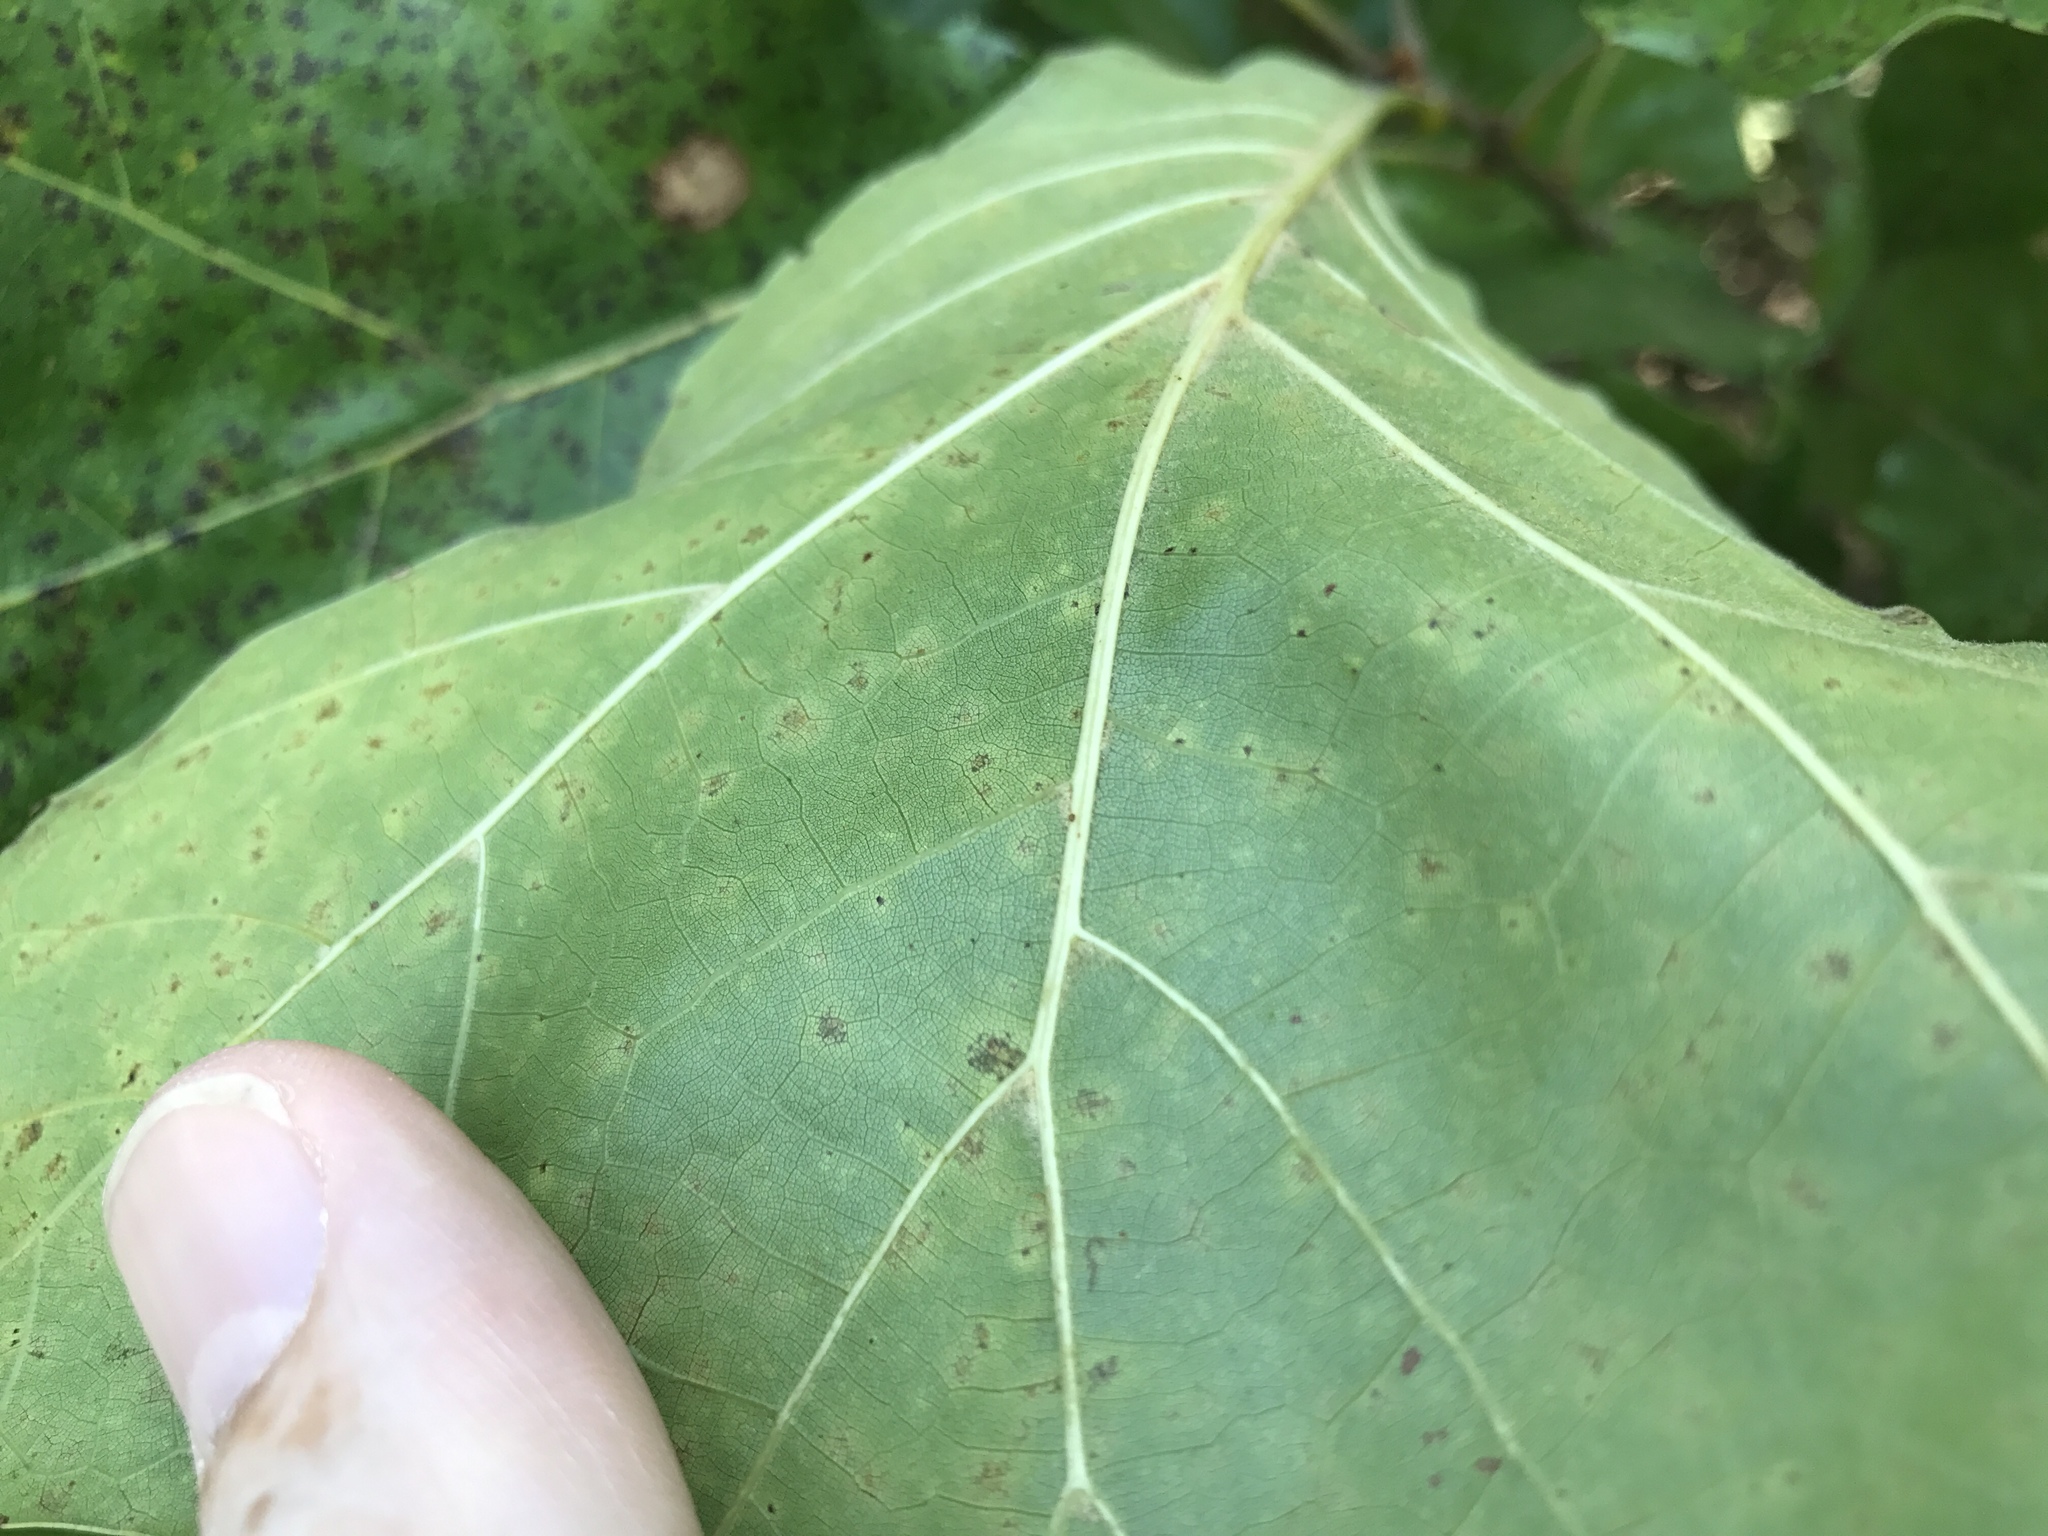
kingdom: Plantae
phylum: Tracheophyta
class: Magnoliopsida
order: Fagales
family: Fagaceae
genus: Quercus
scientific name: Quercus velutina
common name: Black oak
